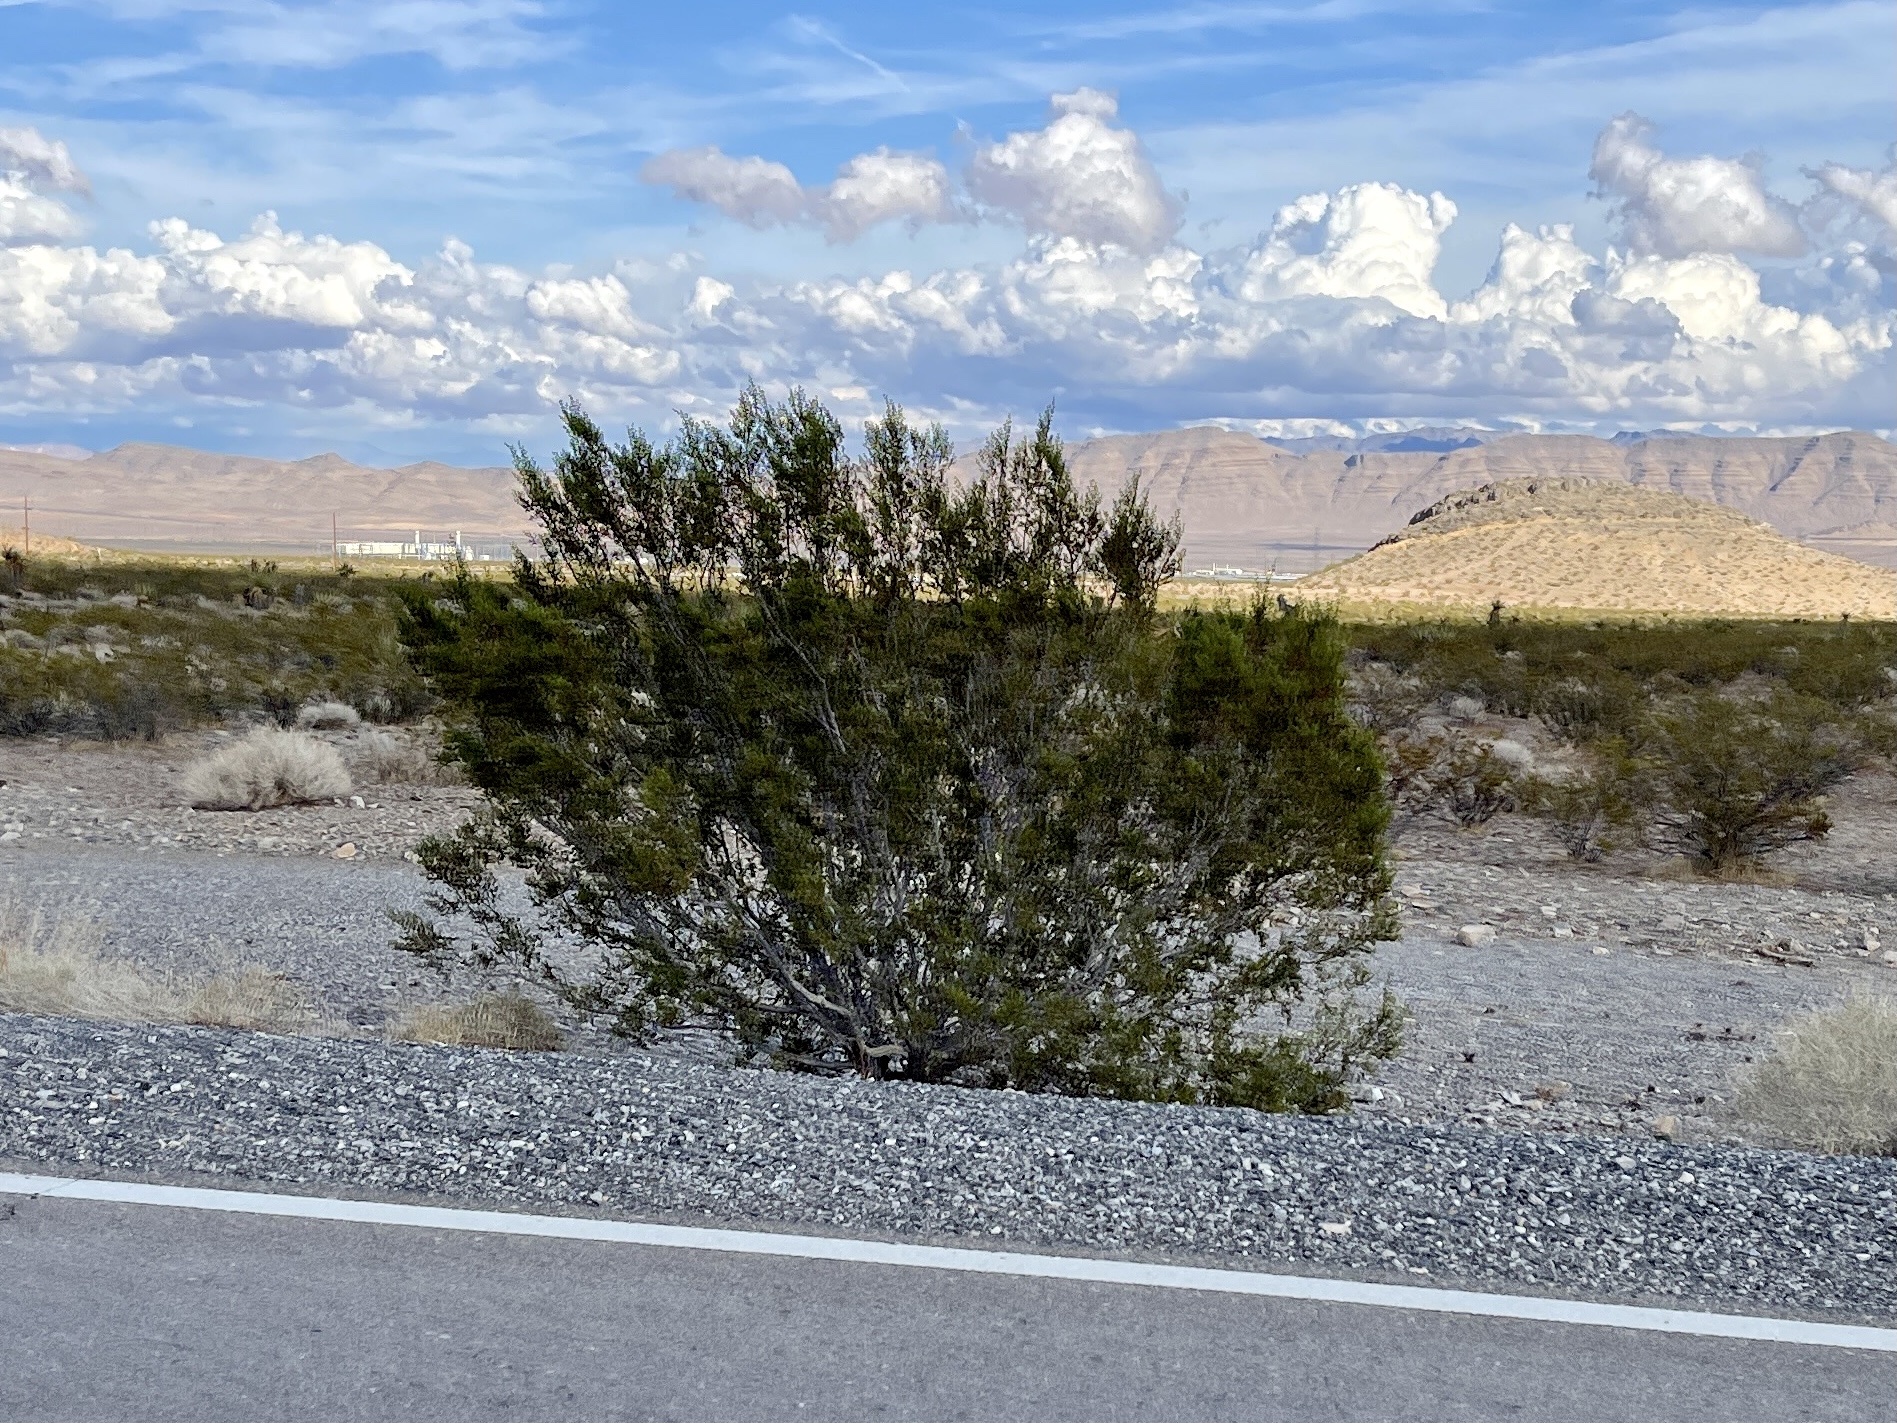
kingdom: Plantae
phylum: Tracheophyta
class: Magnoliopsida
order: Zygophyllales
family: Zygophyllaceae
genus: Larrea
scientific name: Larrea tridentata
